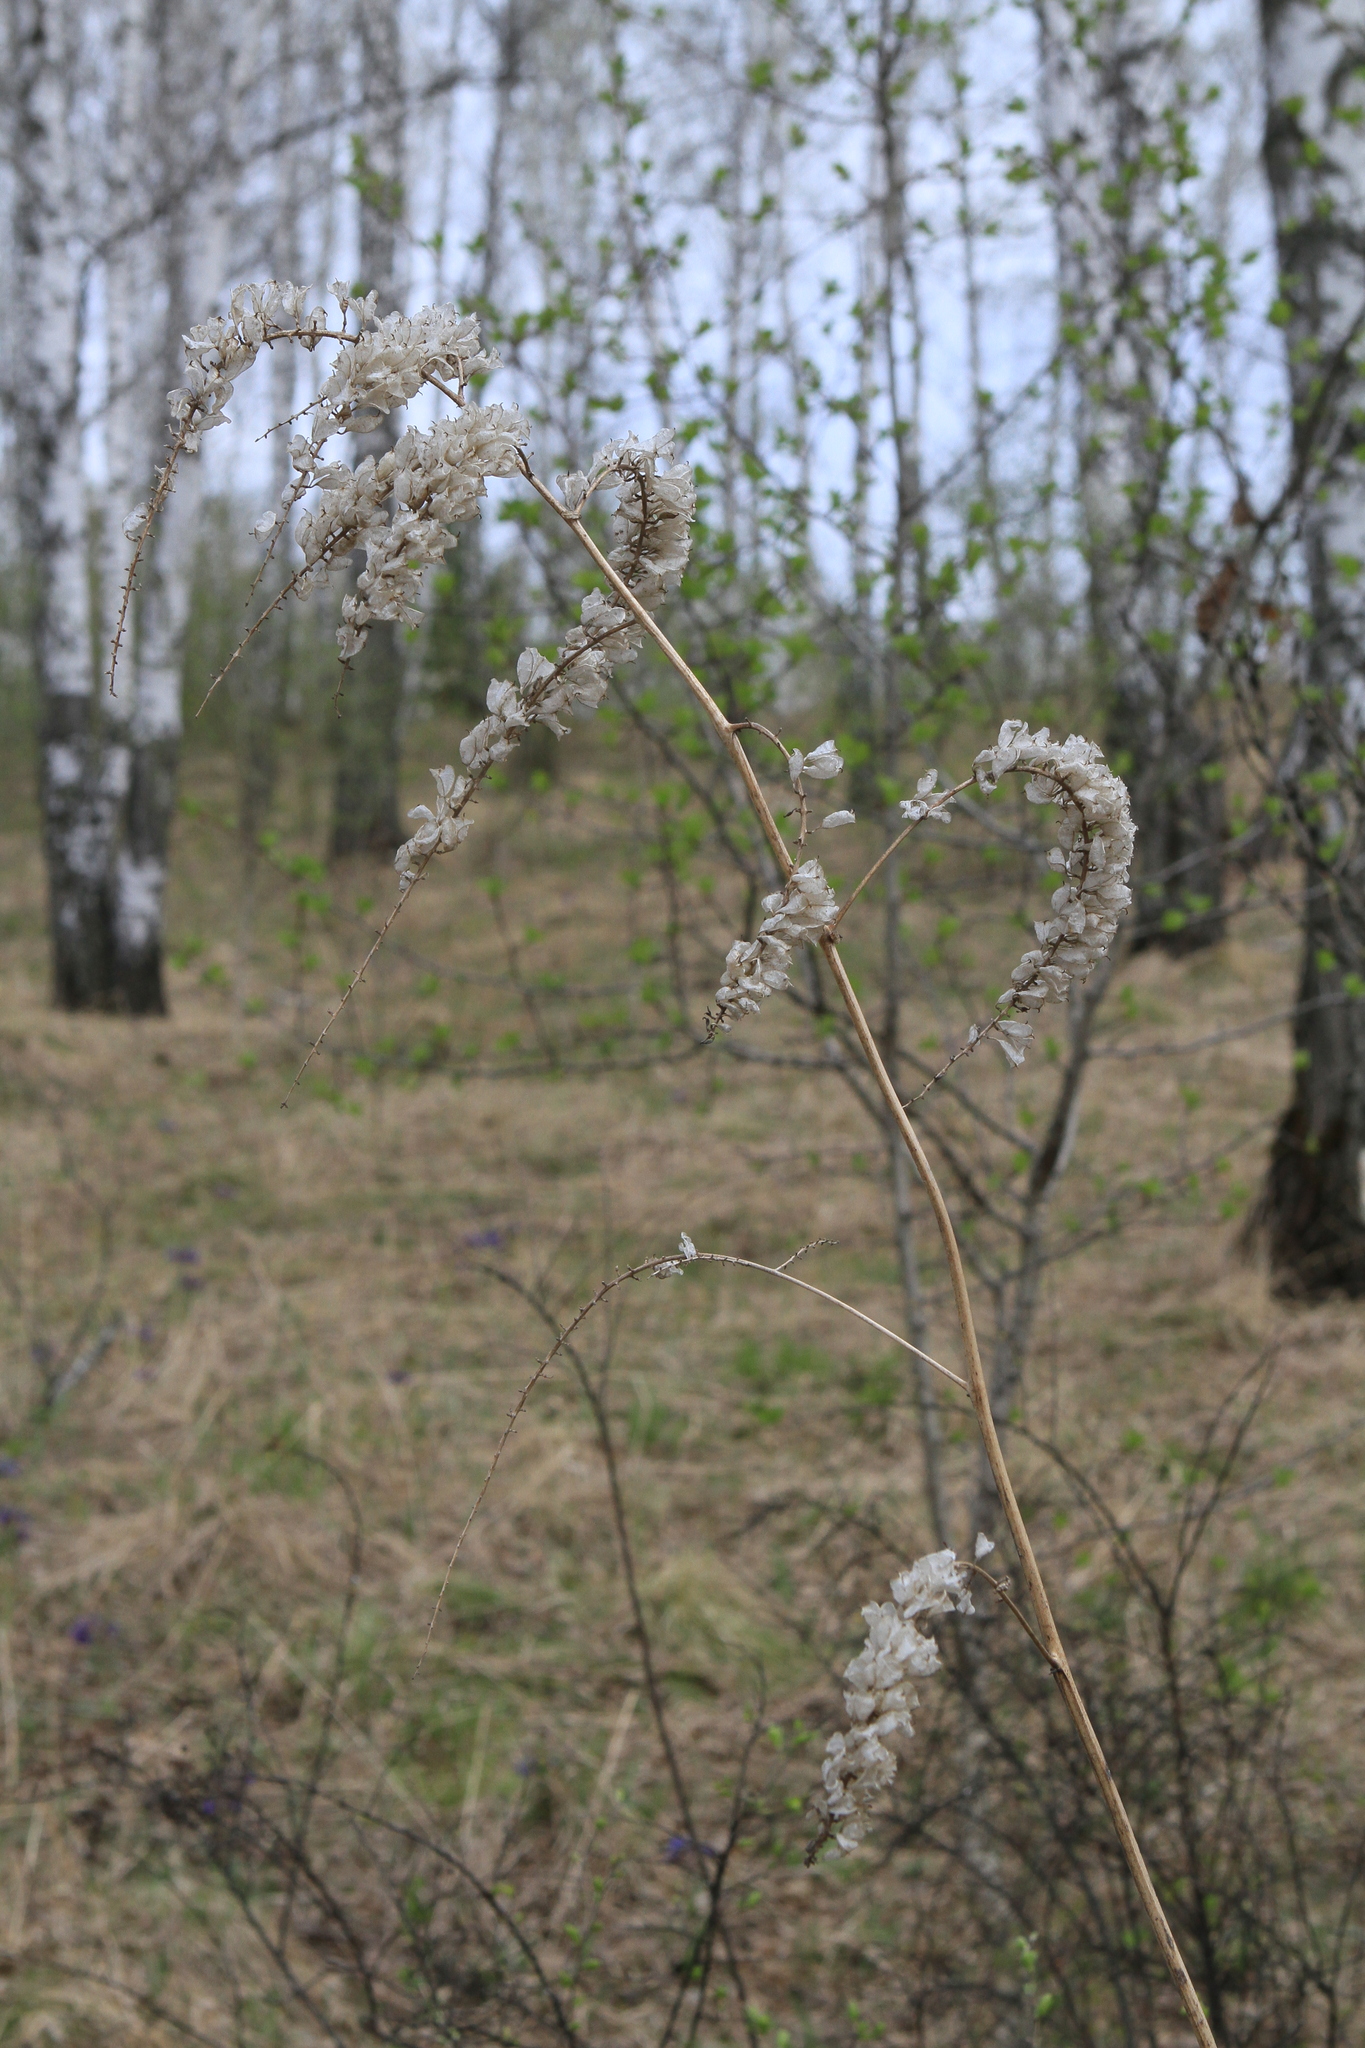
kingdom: Plantae
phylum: Tracheophyta
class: Magnoliopsida
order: Ranunculales
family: Ranunculaceae
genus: Actaea
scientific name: Actaea cimicifuga
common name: Chinese cimicifuga
